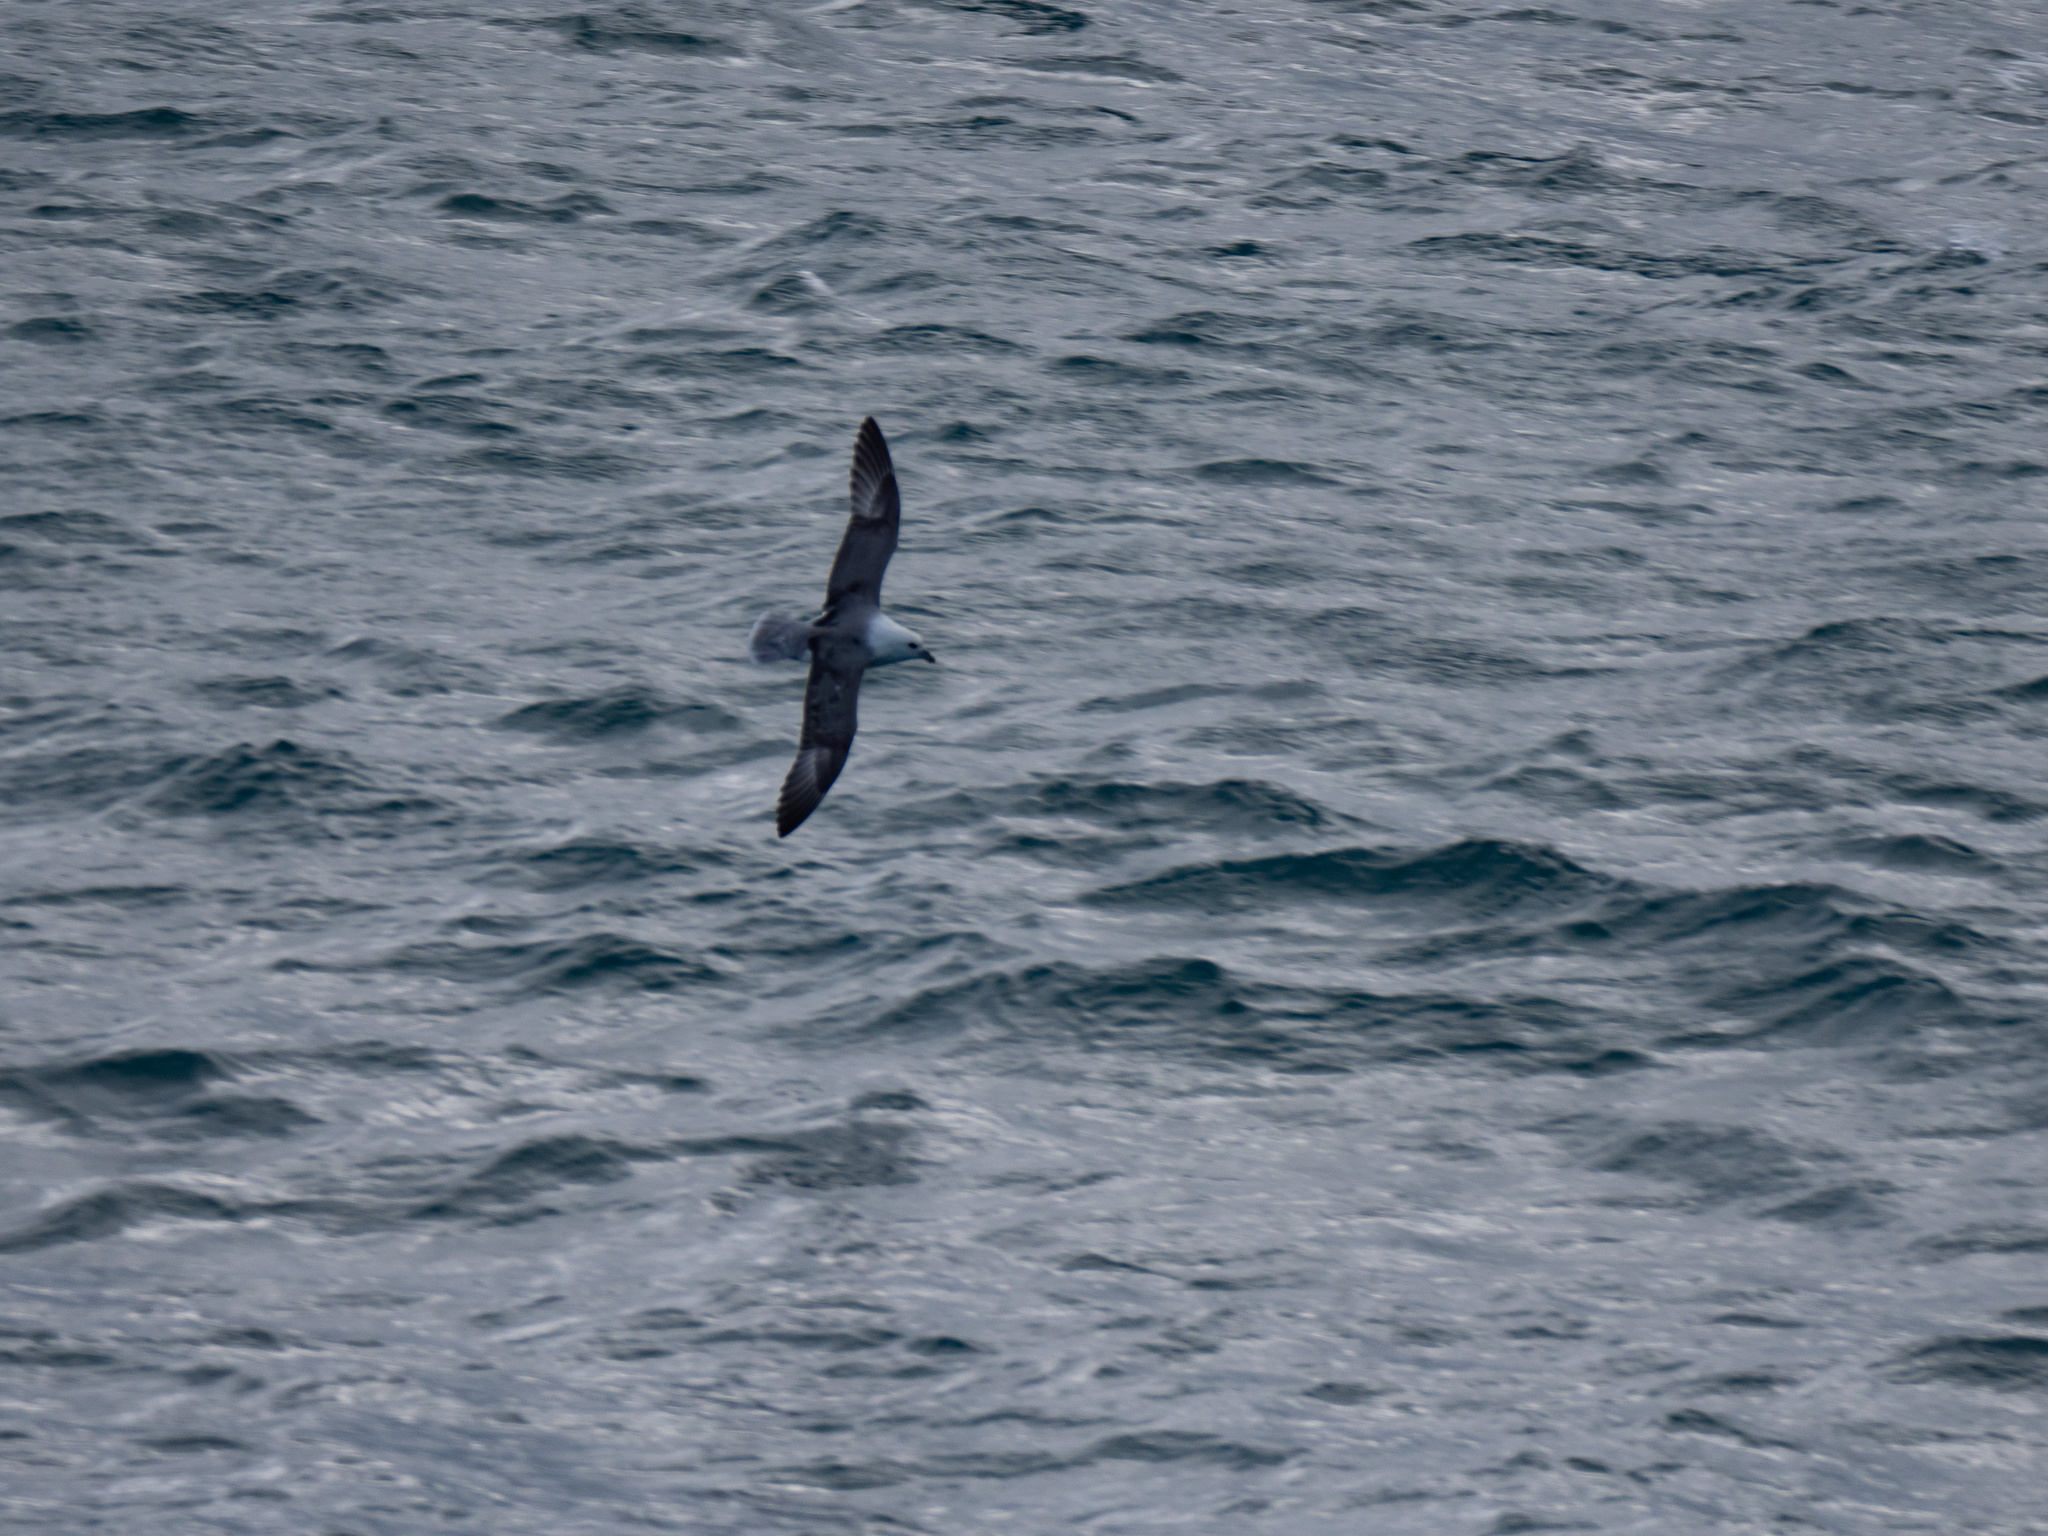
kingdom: Animalia
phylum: Chordata
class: Aves
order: Procellariiformes
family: Procellariidae
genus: Fulmarus
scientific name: Fulmarus glacialis
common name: Northern fulmar
